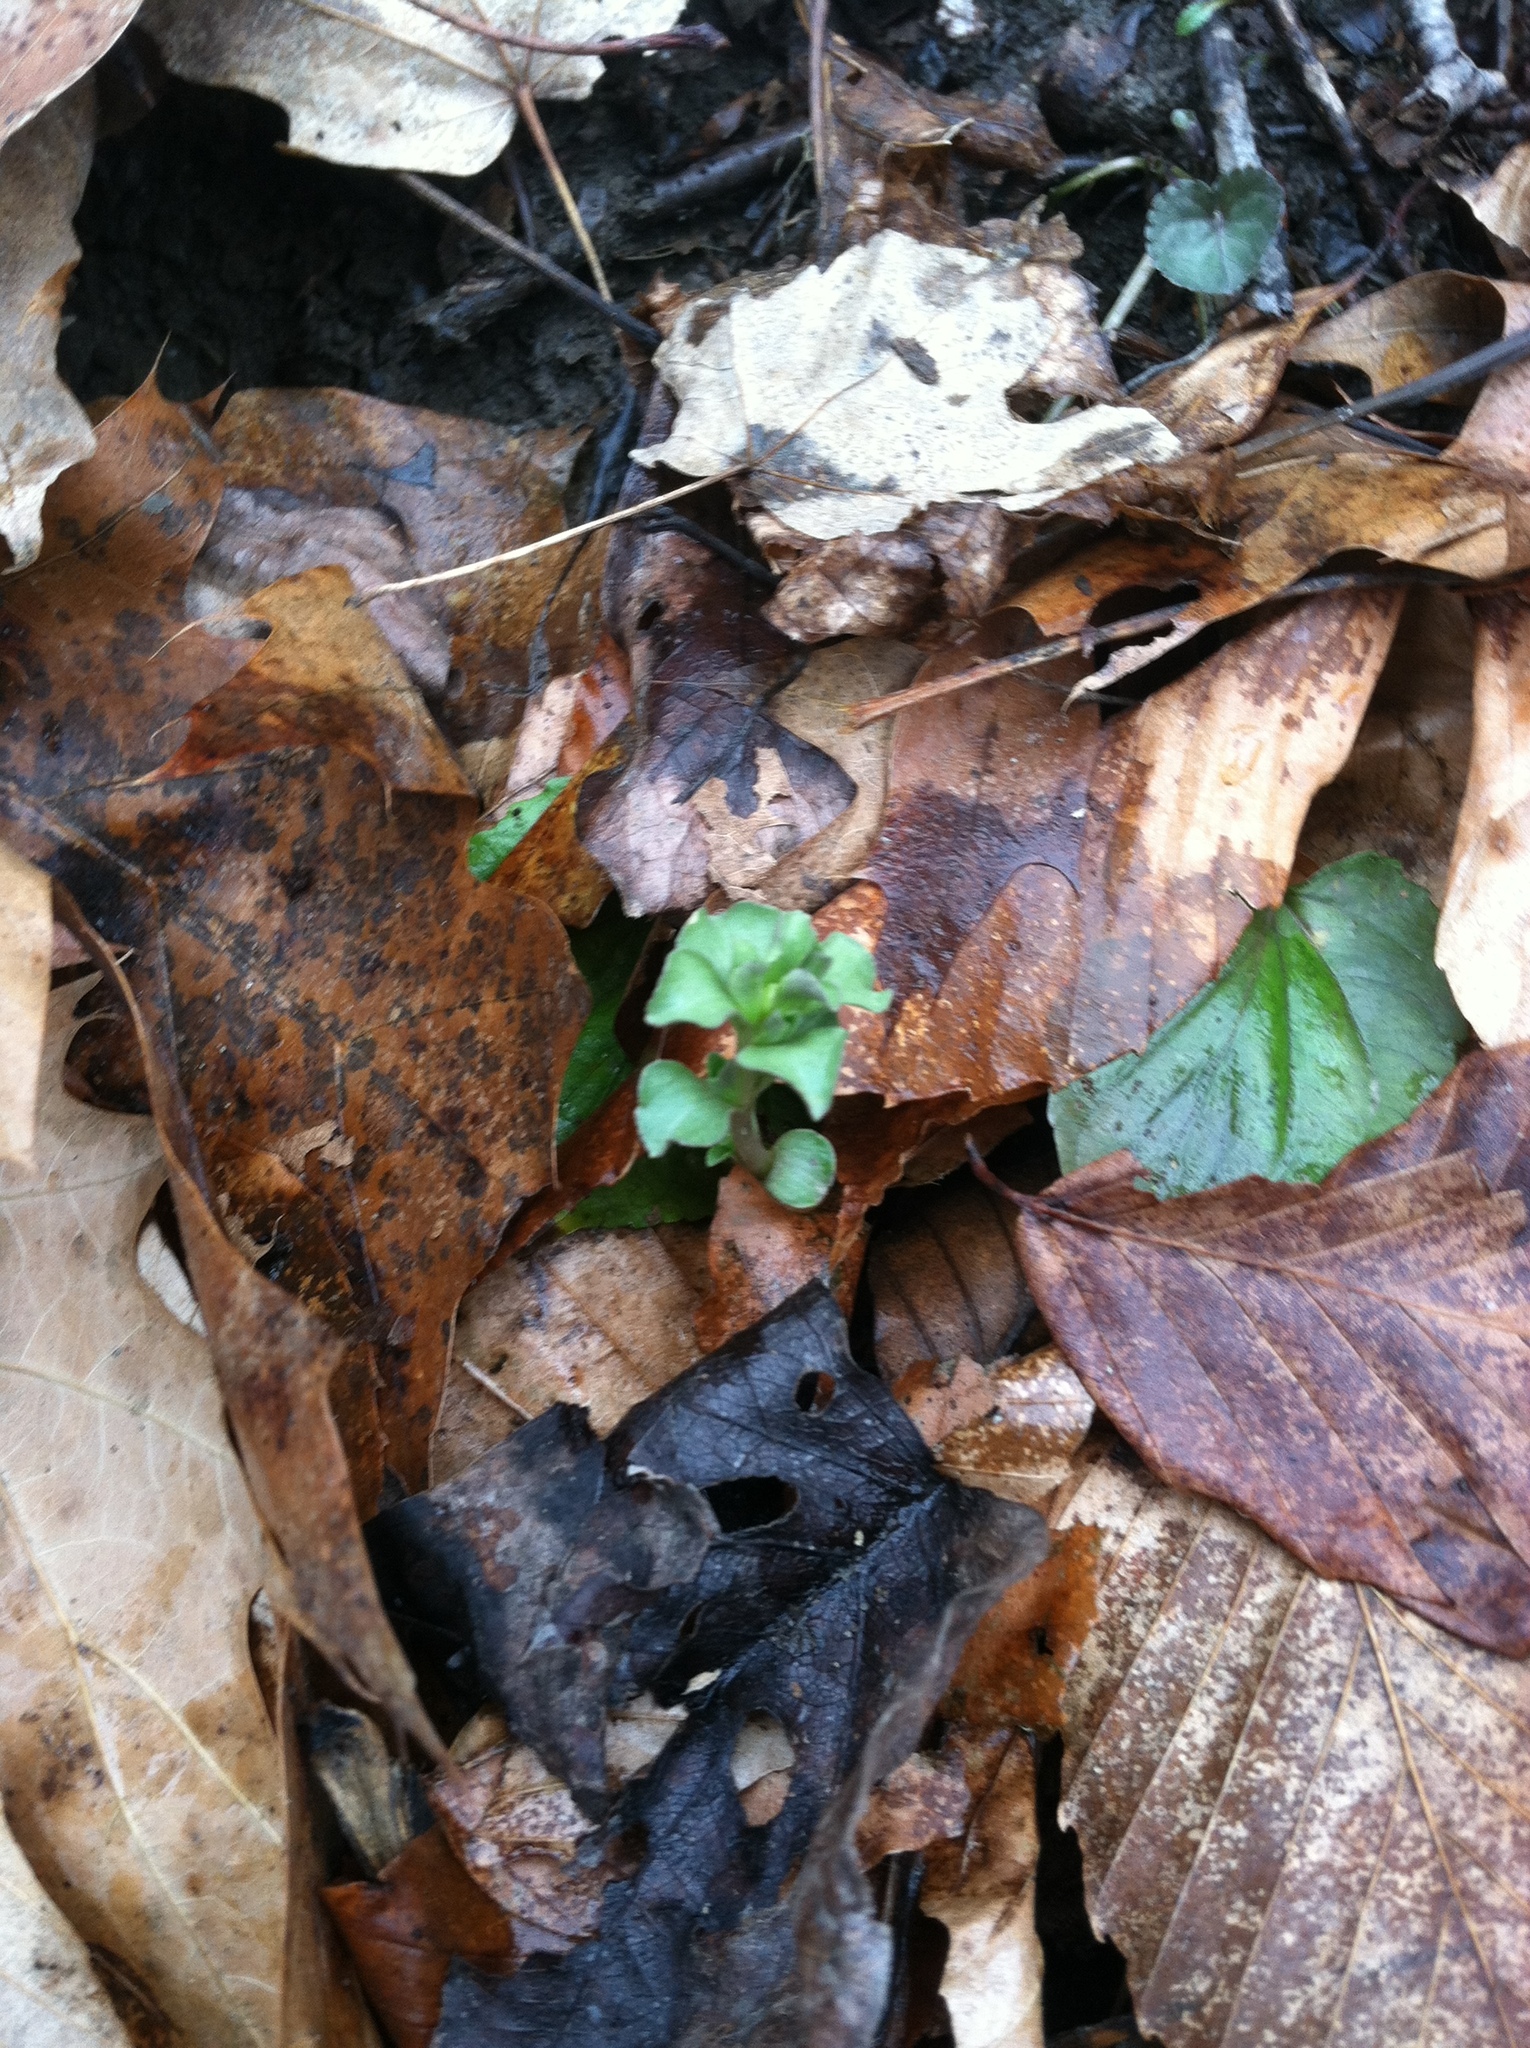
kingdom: Plantae
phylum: Tracheophyta
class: Magnoliopsida
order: Gentianales
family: Gentianaceae
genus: Obolaria
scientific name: Obolaria virginica
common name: Pennywort
